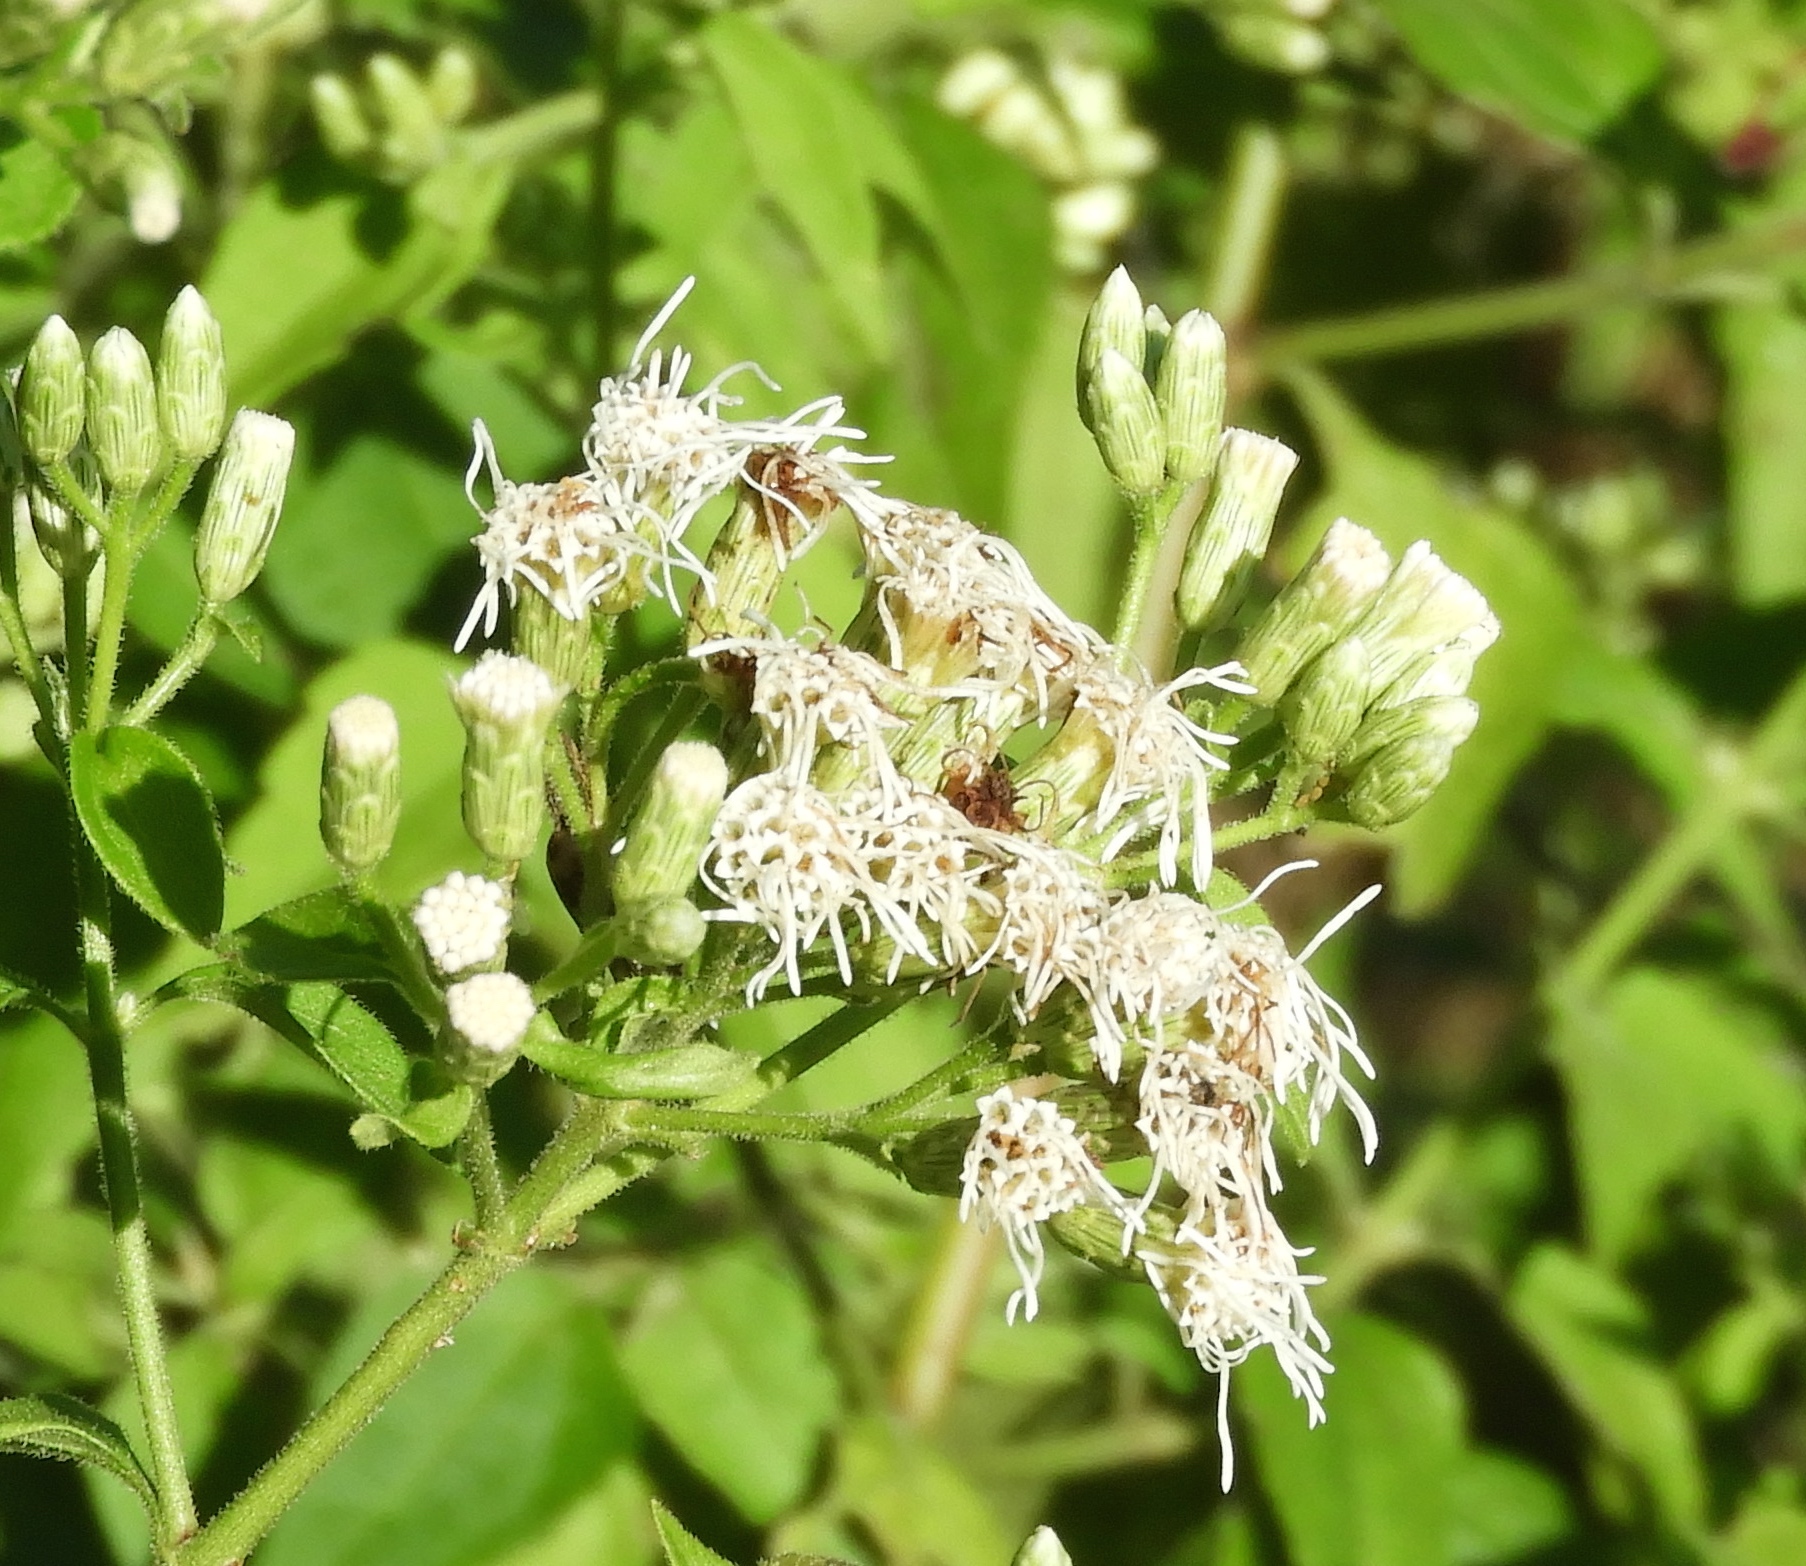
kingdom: Plantae
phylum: Tracheophyta
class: Magnoliopsida
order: Asterales
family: Asteraceae
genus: Chromolaena
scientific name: Chromolaena odorata
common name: Siamweed
